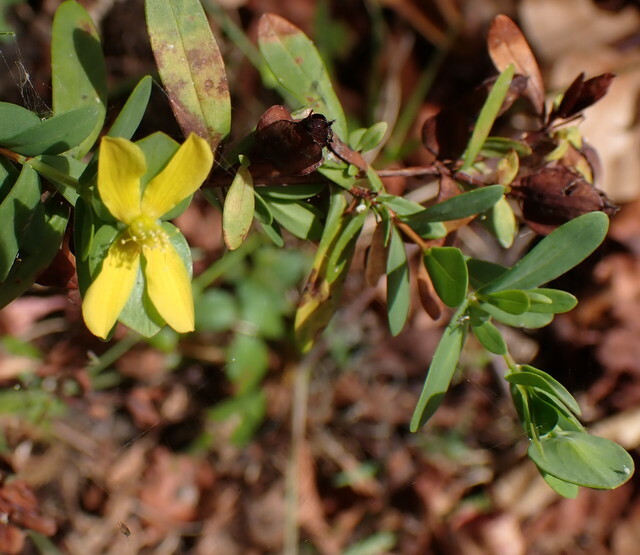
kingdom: Plantae
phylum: Tracheophyta
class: Magnoliopsida
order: Malpighiales
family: Hypericaceae
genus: Hypericum
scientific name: Hypericum hypericoides
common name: St. andrew's cross
